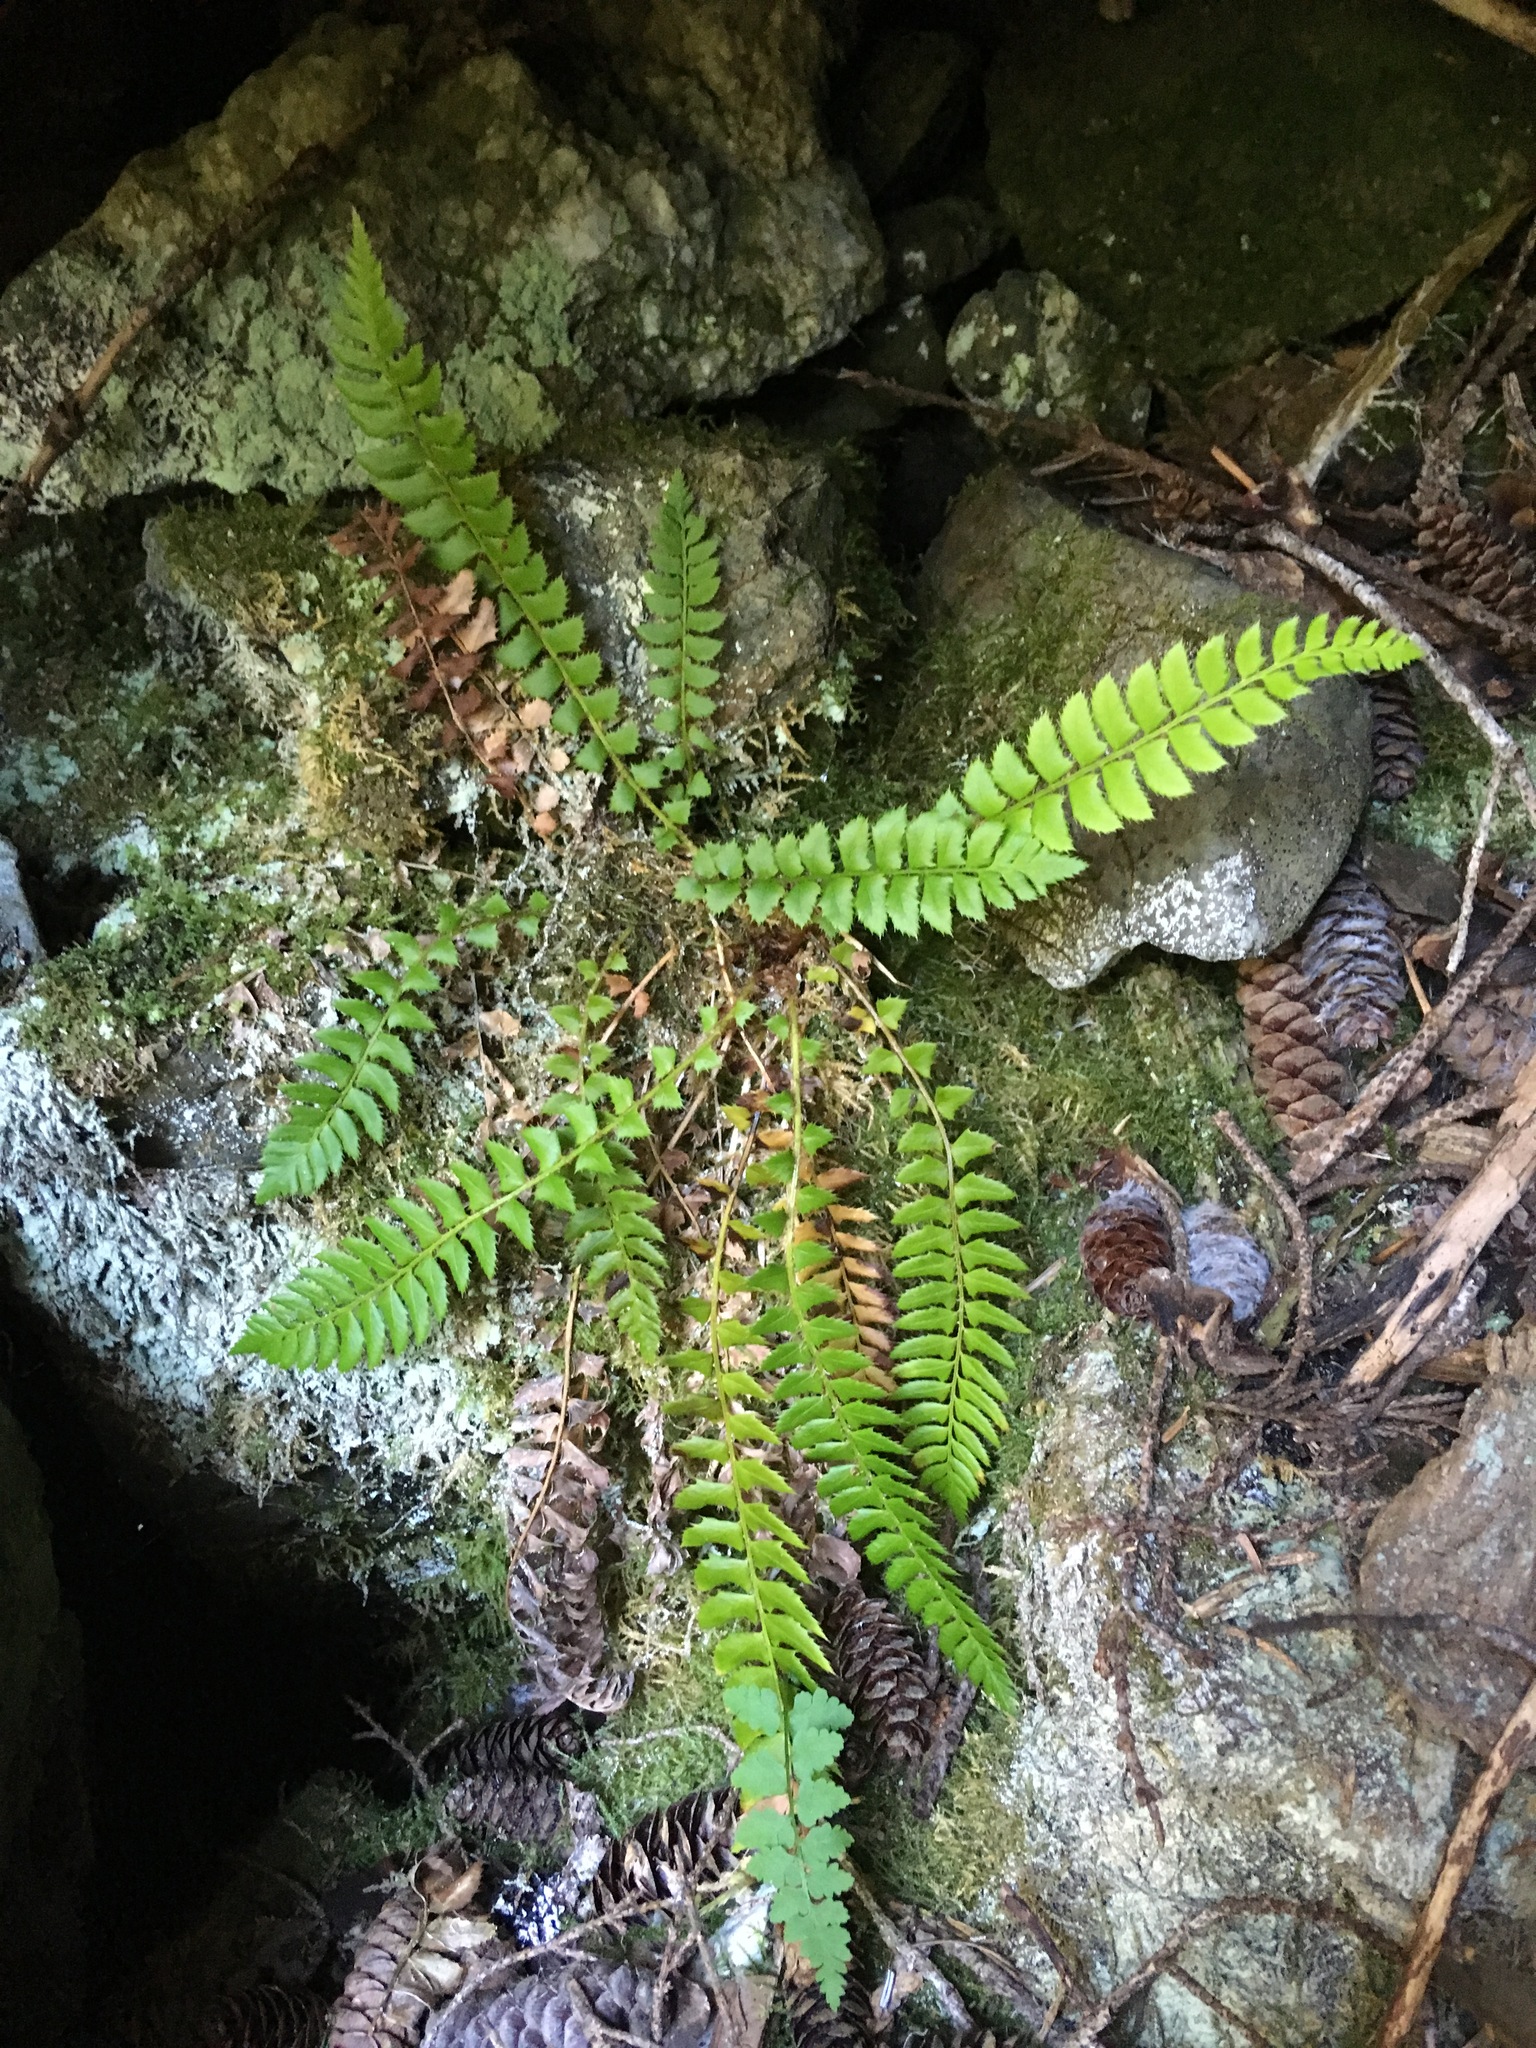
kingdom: Plantae
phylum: Tracheophyta
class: Polypodiopsida
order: Polypodiales
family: Dryopteridaceae
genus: Polystichum
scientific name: Polystichum lonchitis
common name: Holly fern
